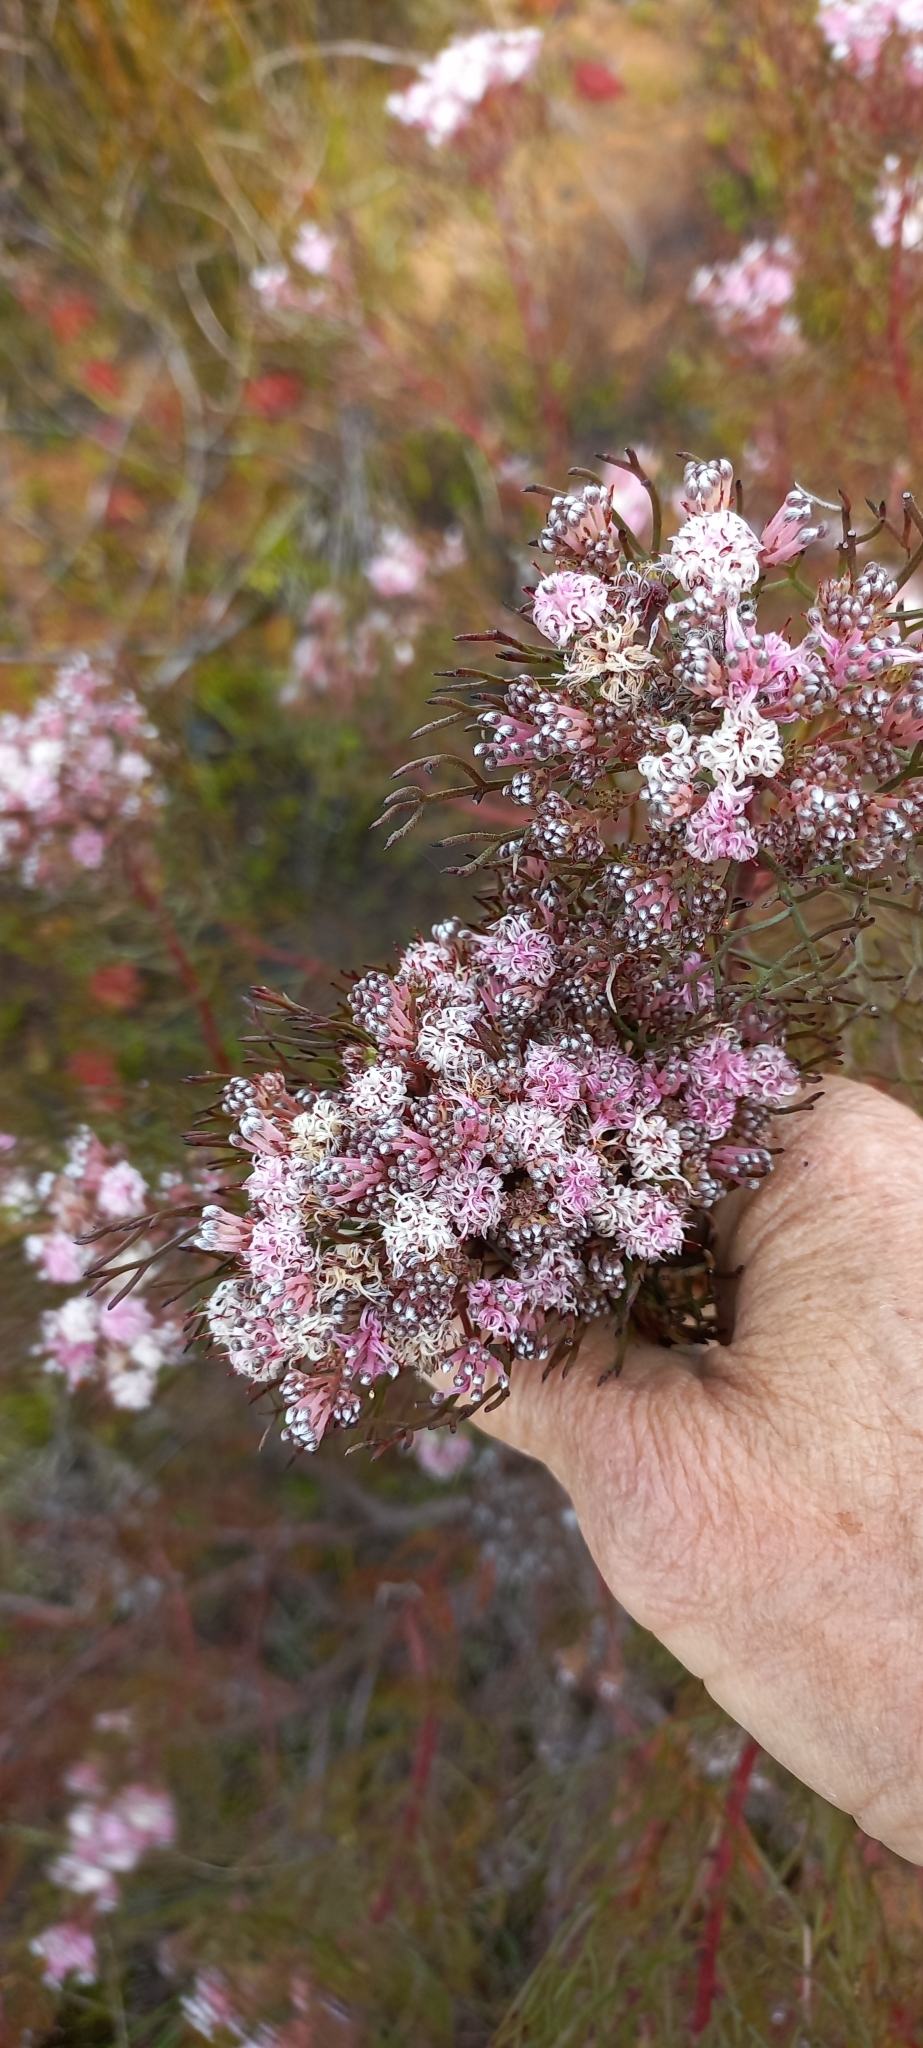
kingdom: Plantae
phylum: Tracheophyta
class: Magnoliopsida
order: Proteales
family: Proteaceae
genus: Serruria
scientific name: Serruria fasciflora
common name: Common pin spiderhead
